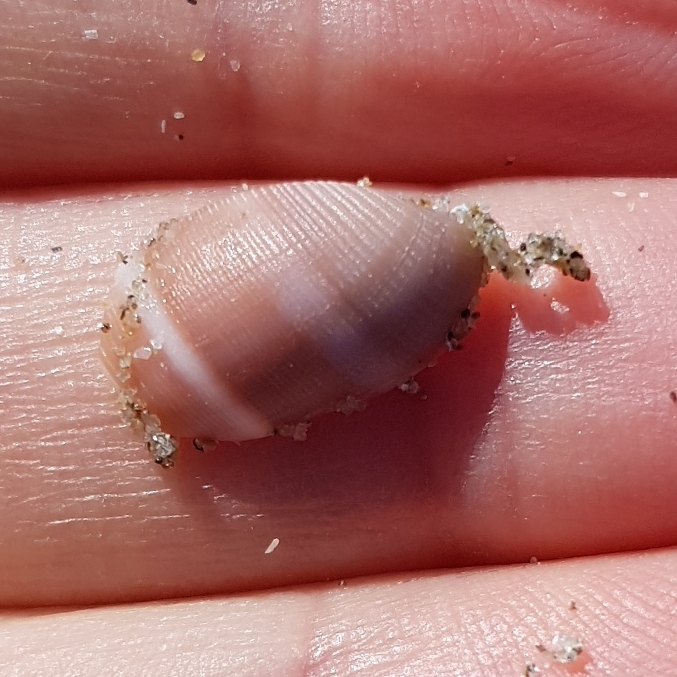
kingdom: Animalia
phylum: Mollusca
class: Gastropoda
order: Cephalaspidea
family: Acteonidae
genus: Acteon
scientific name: Acteon tornatilis
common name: European acteon
